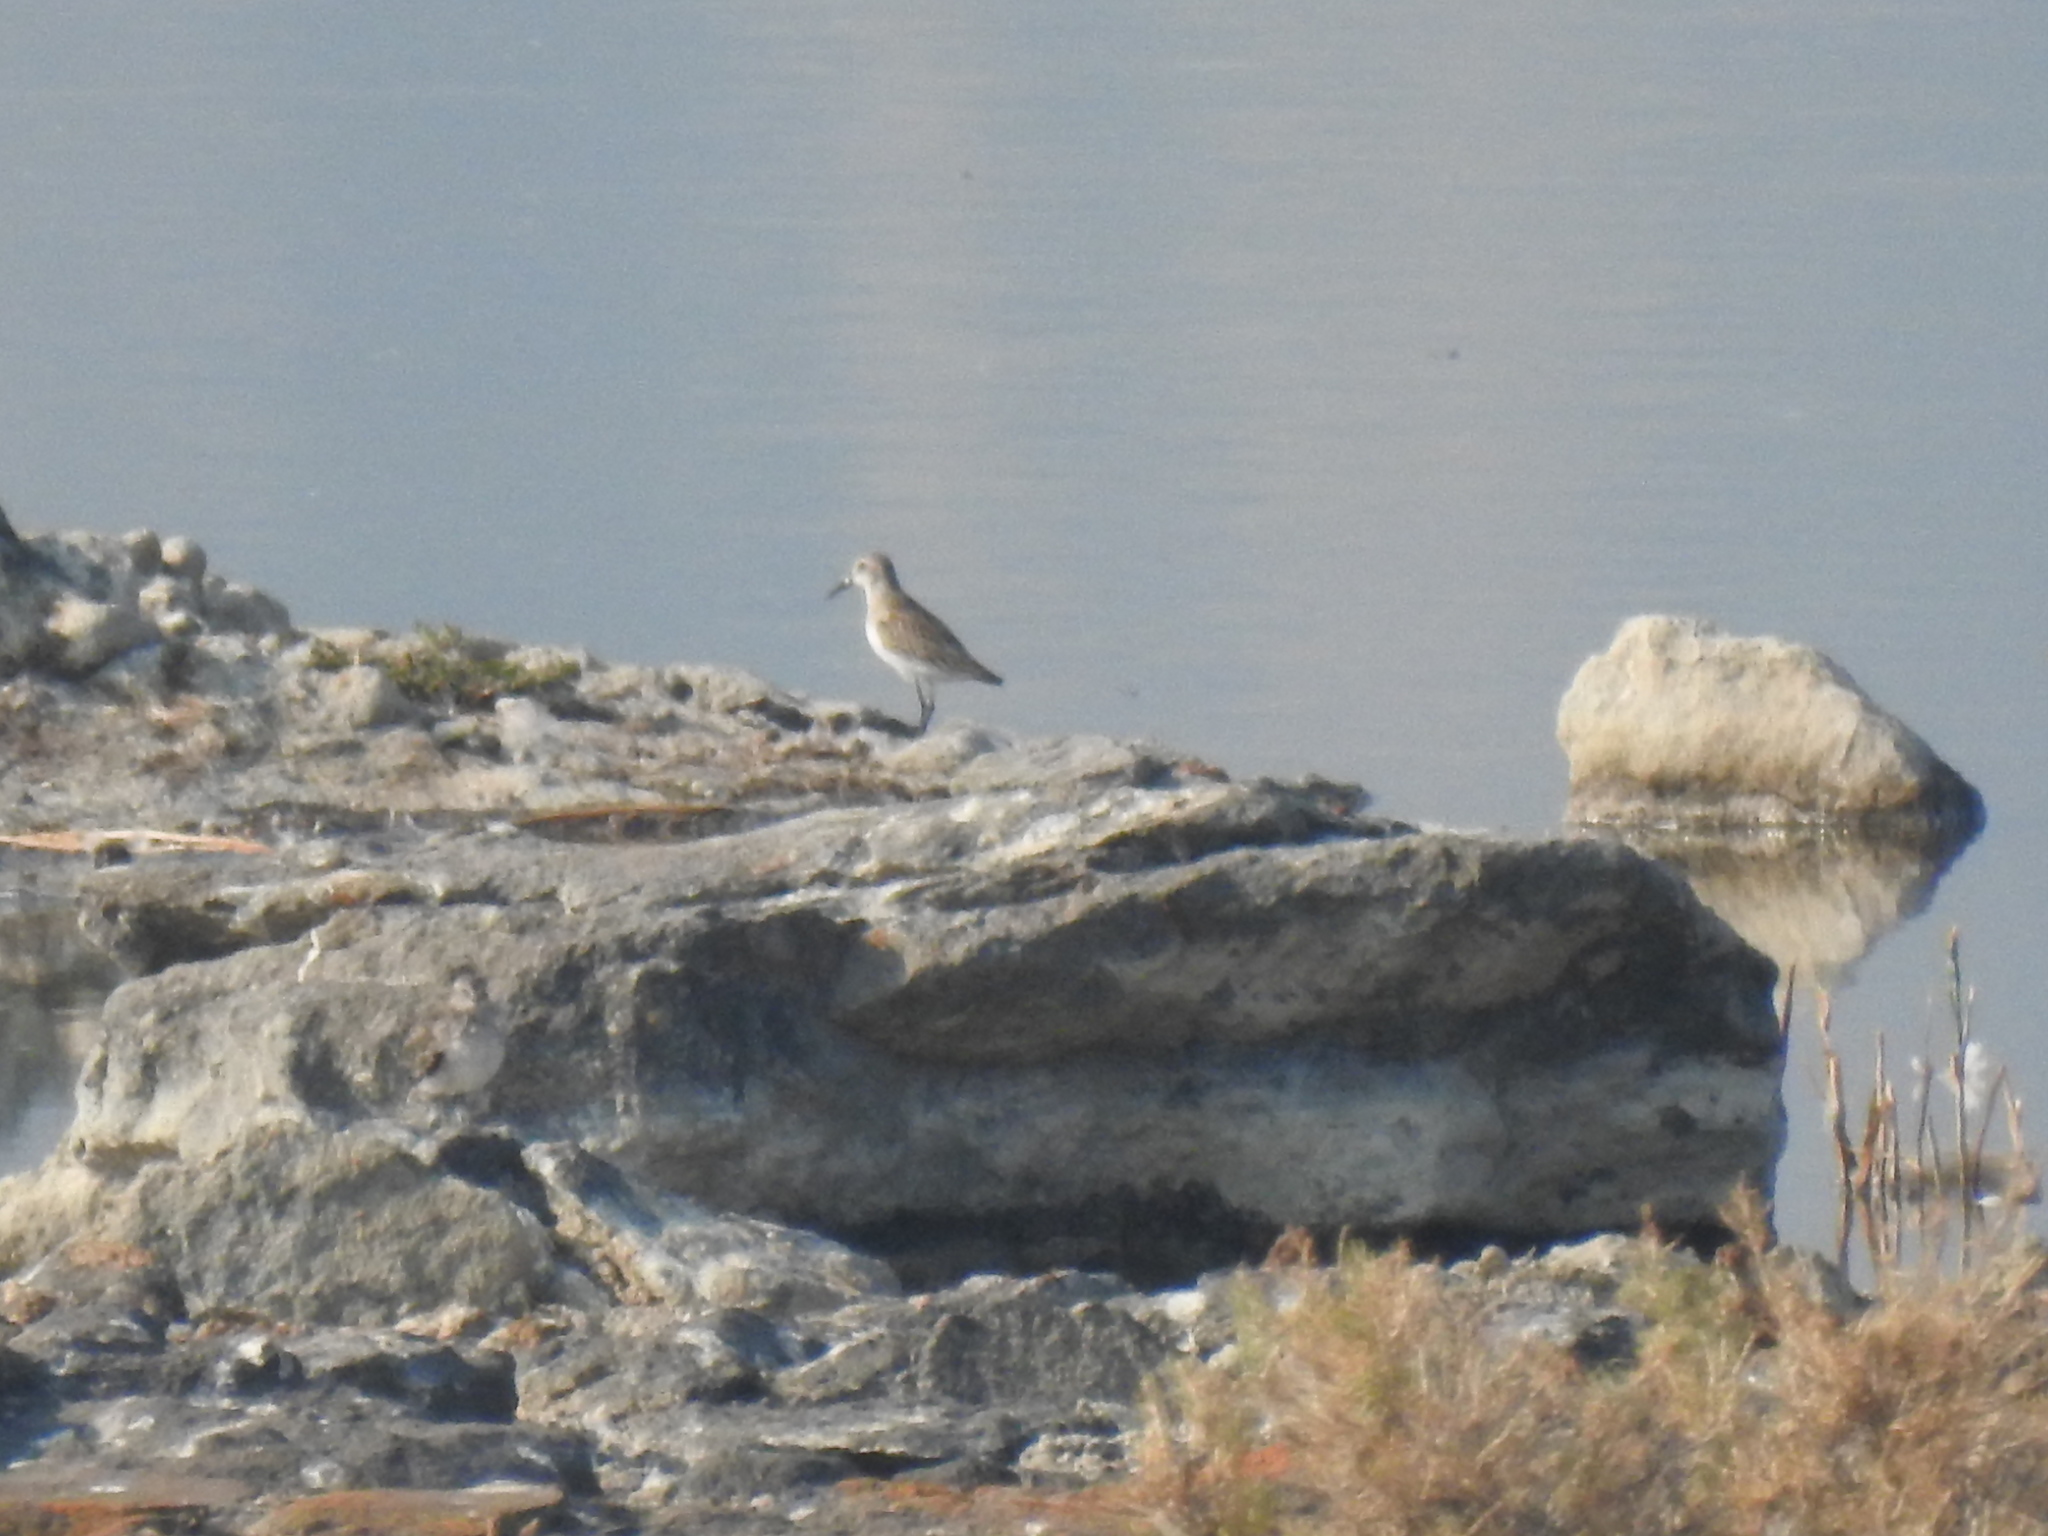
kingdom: Animalia
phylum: Chordata
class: Aves
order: Charadriiformes
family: Scolopacidae
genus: Calidris
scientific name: Calidris mauri
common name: Western sandpiper
